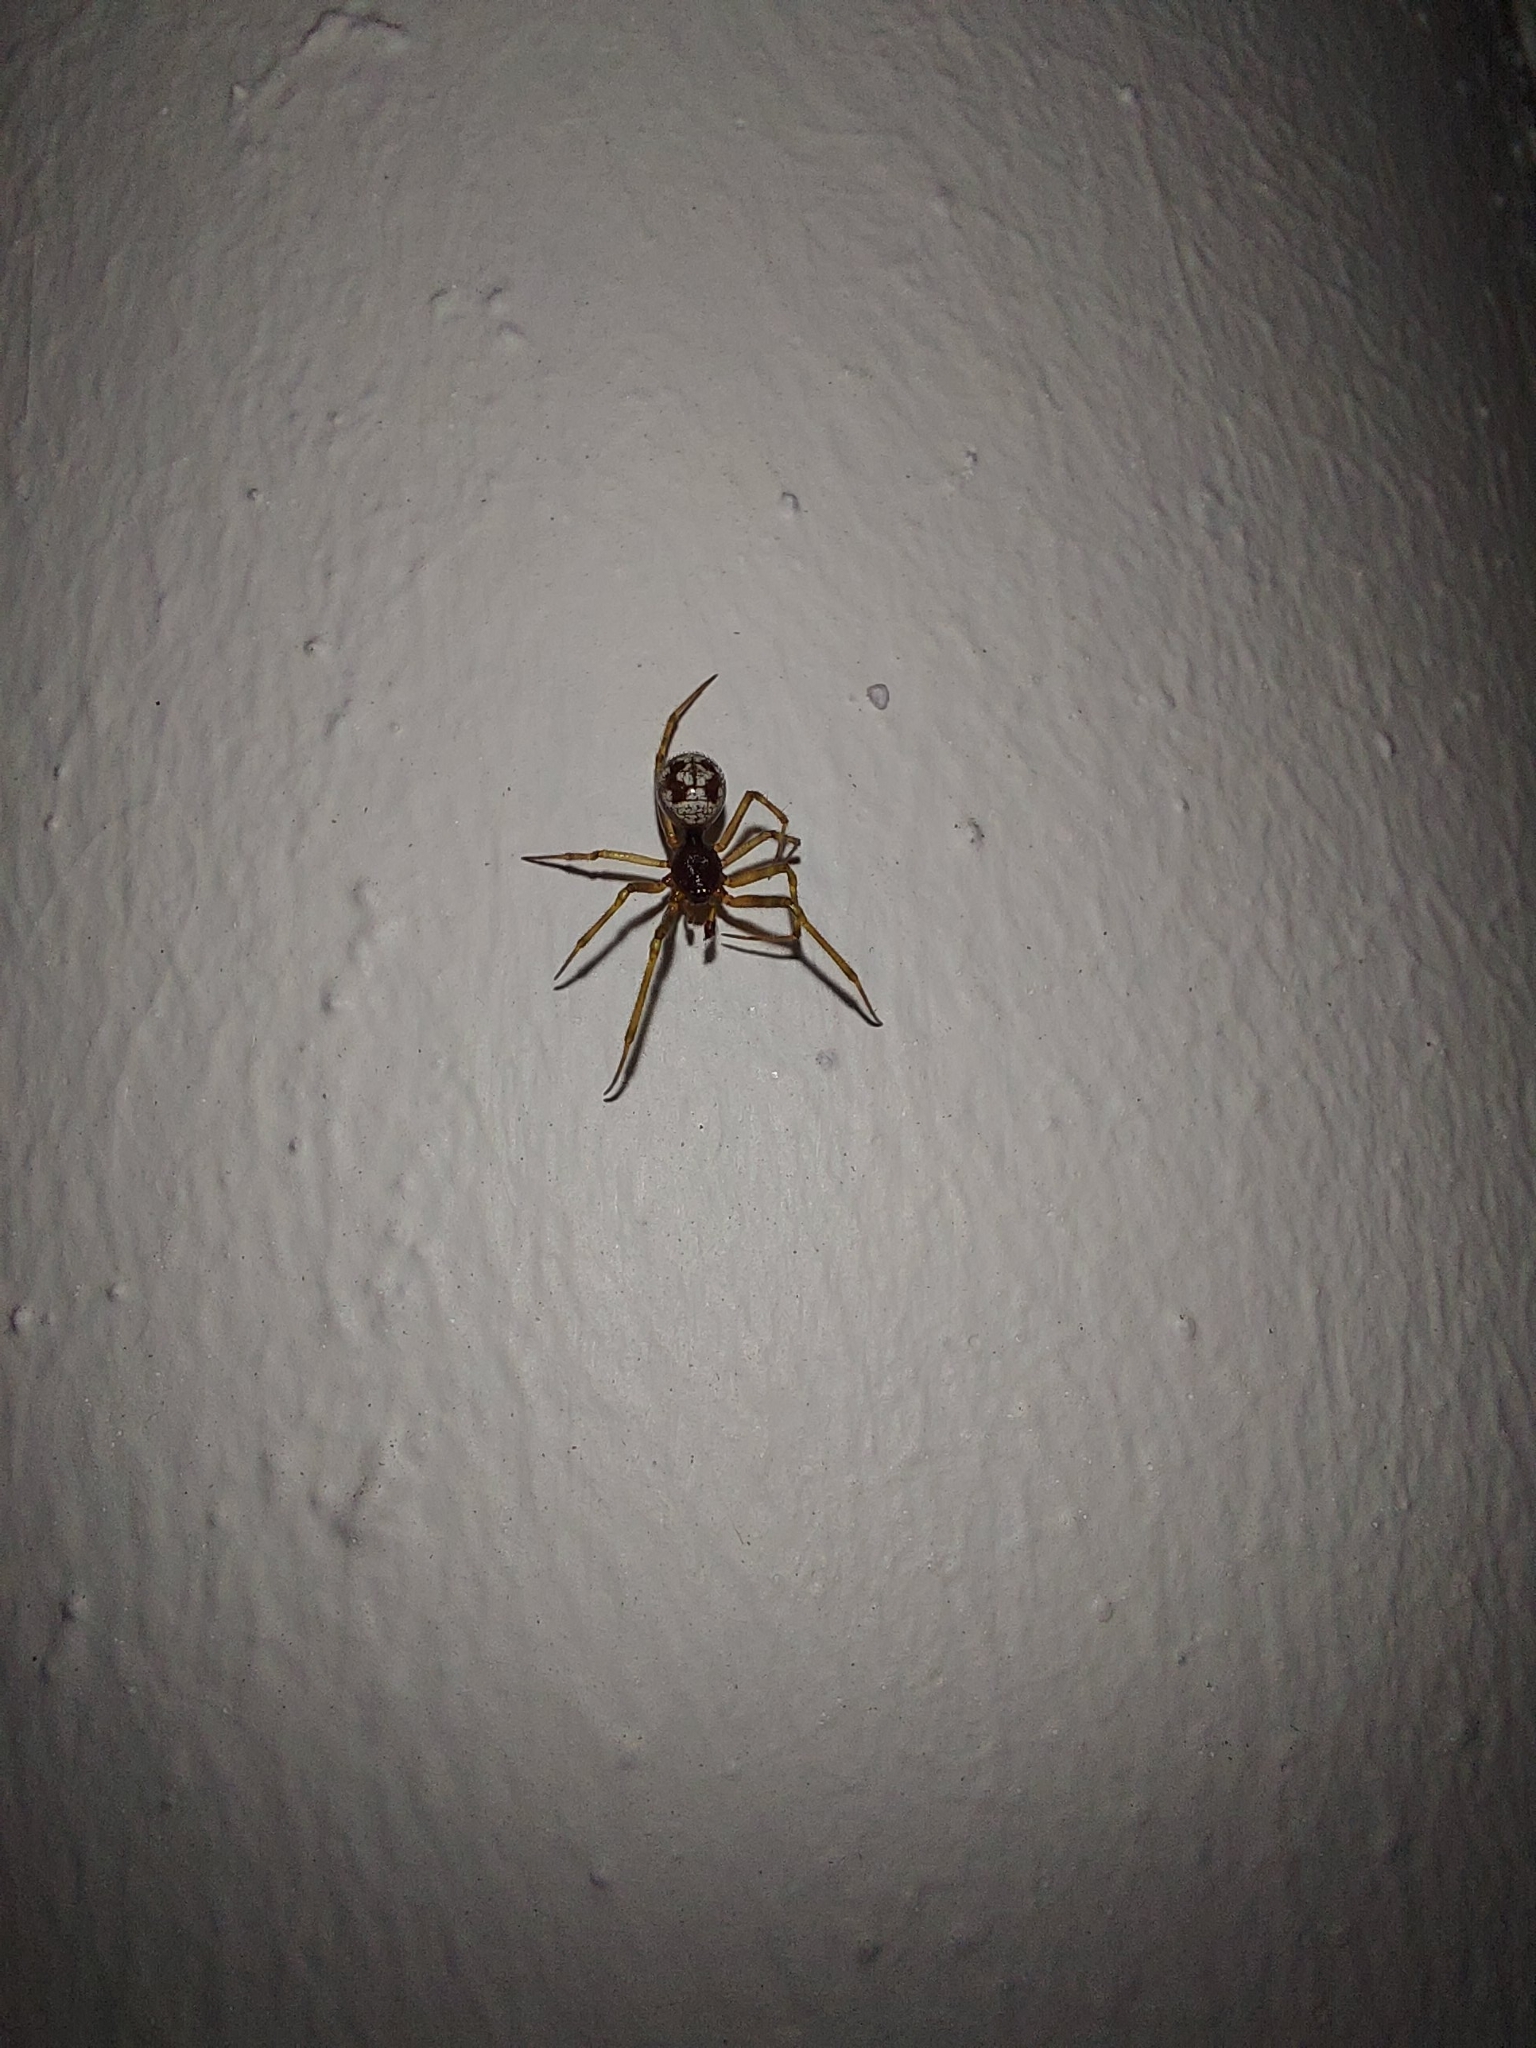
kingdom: Animalia
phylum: Arthropoda
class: Arachnida
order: Araneae
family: Theridiidae
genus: Steatoda
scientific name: Steatoda triangulosa
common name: Triangulate bud spider
